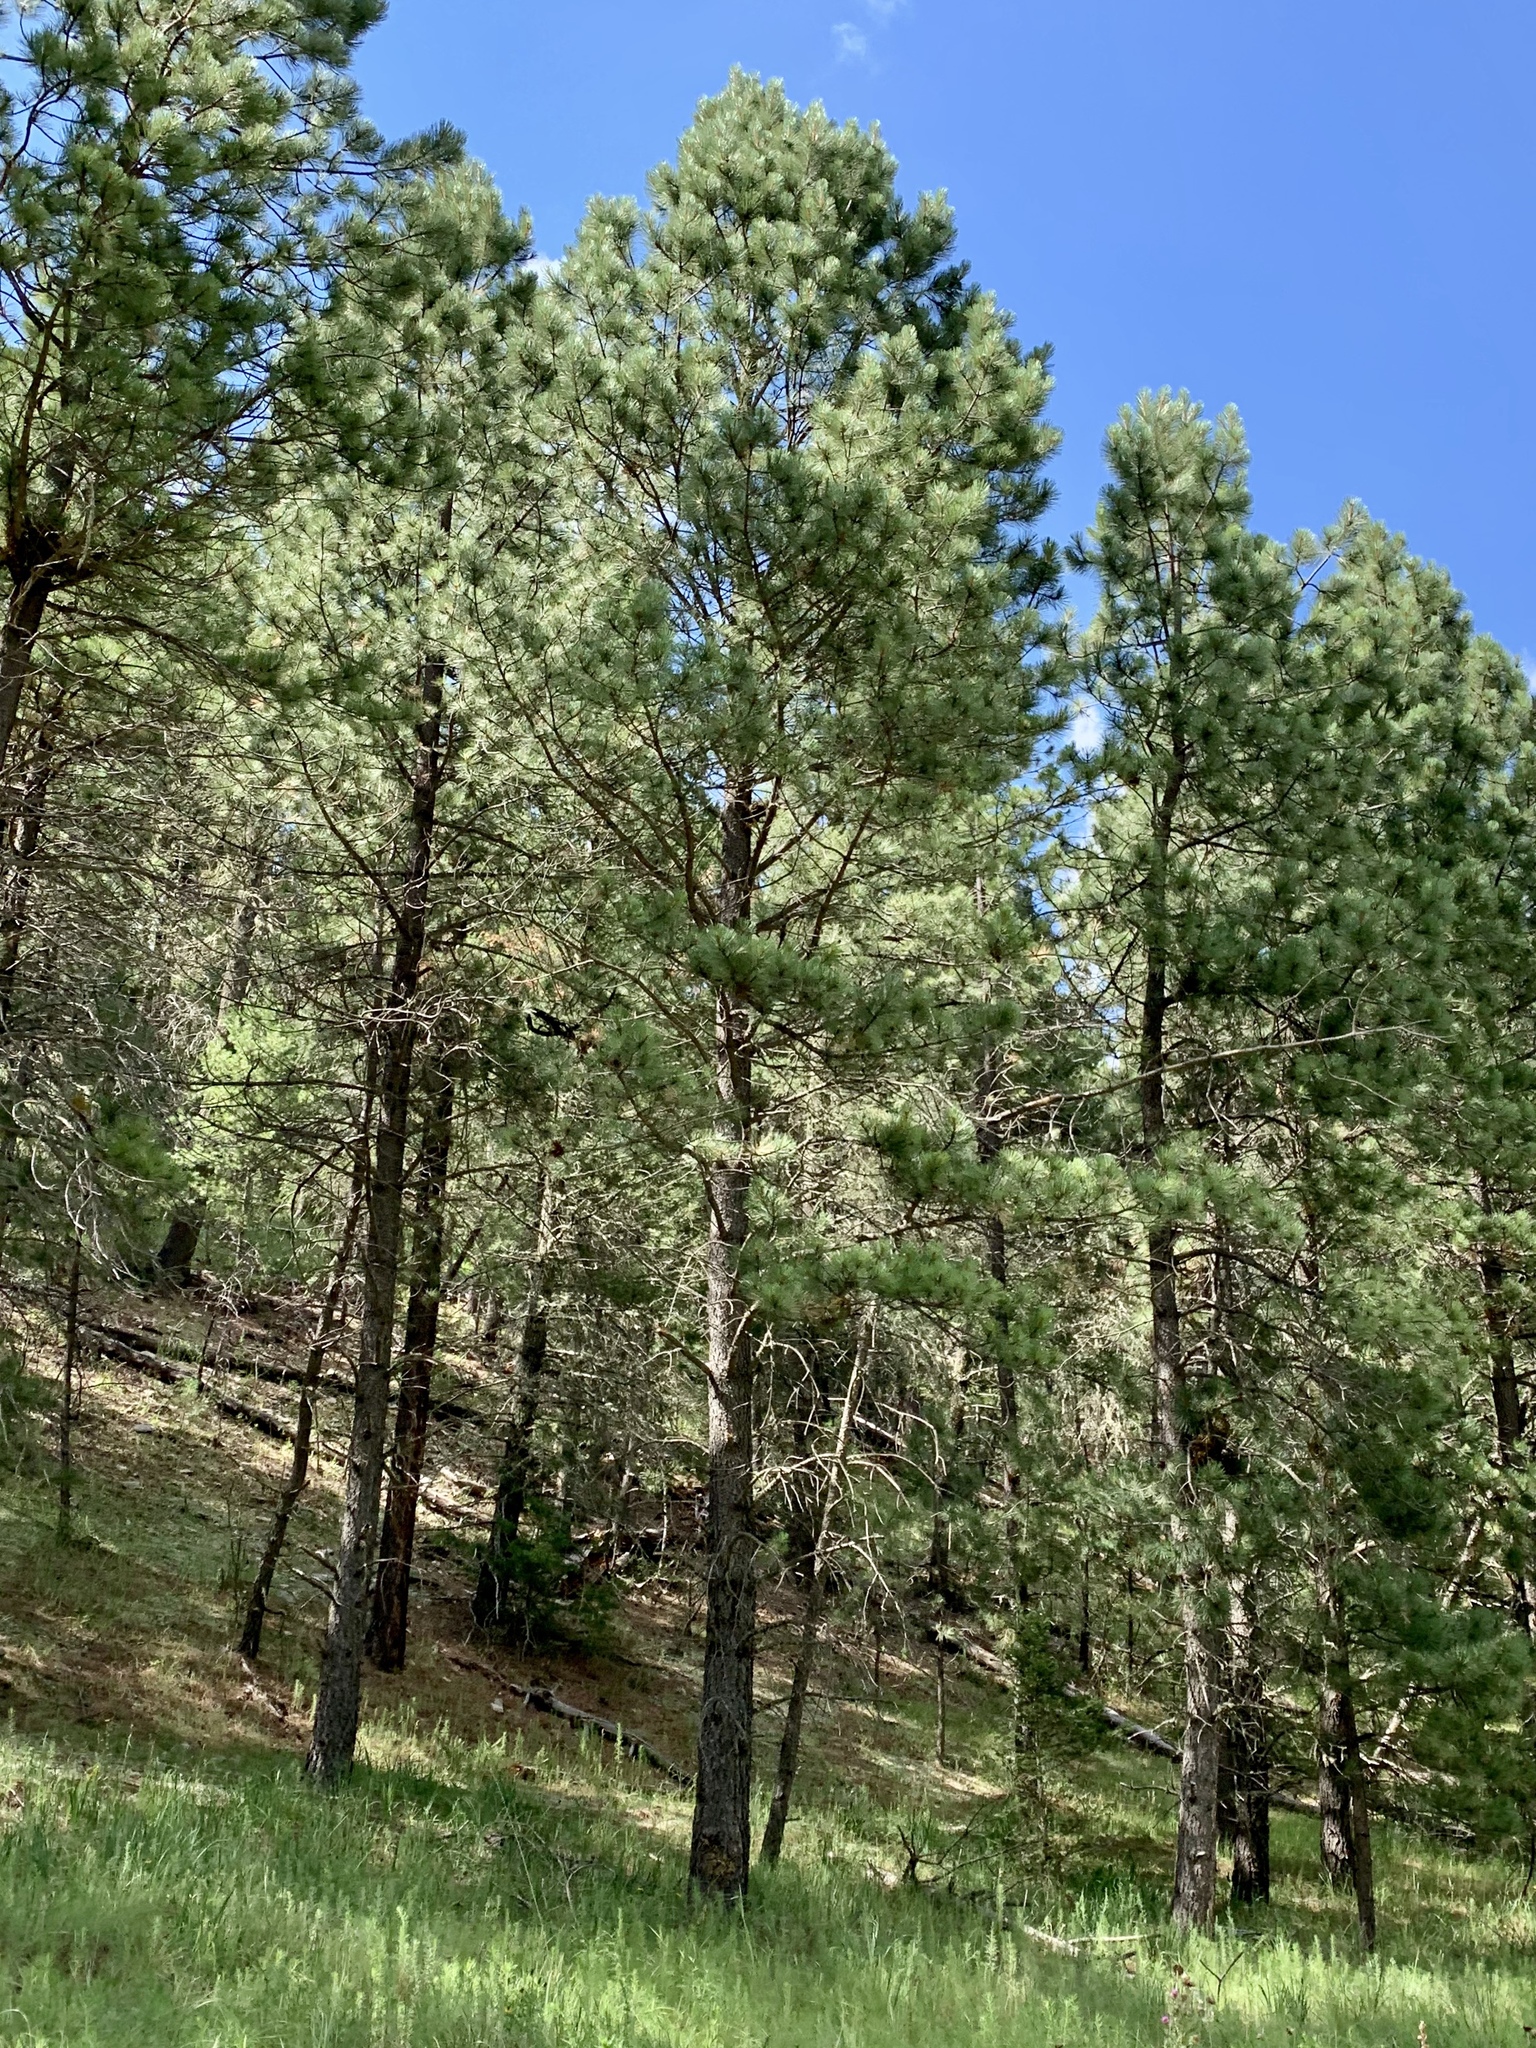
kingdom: Plantae
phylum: Tracheophyta
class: Pinopsida
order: Pinales
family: Pinaceae
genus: Pinus
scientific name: Pinus ponderosa
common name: Western yellow-pine
